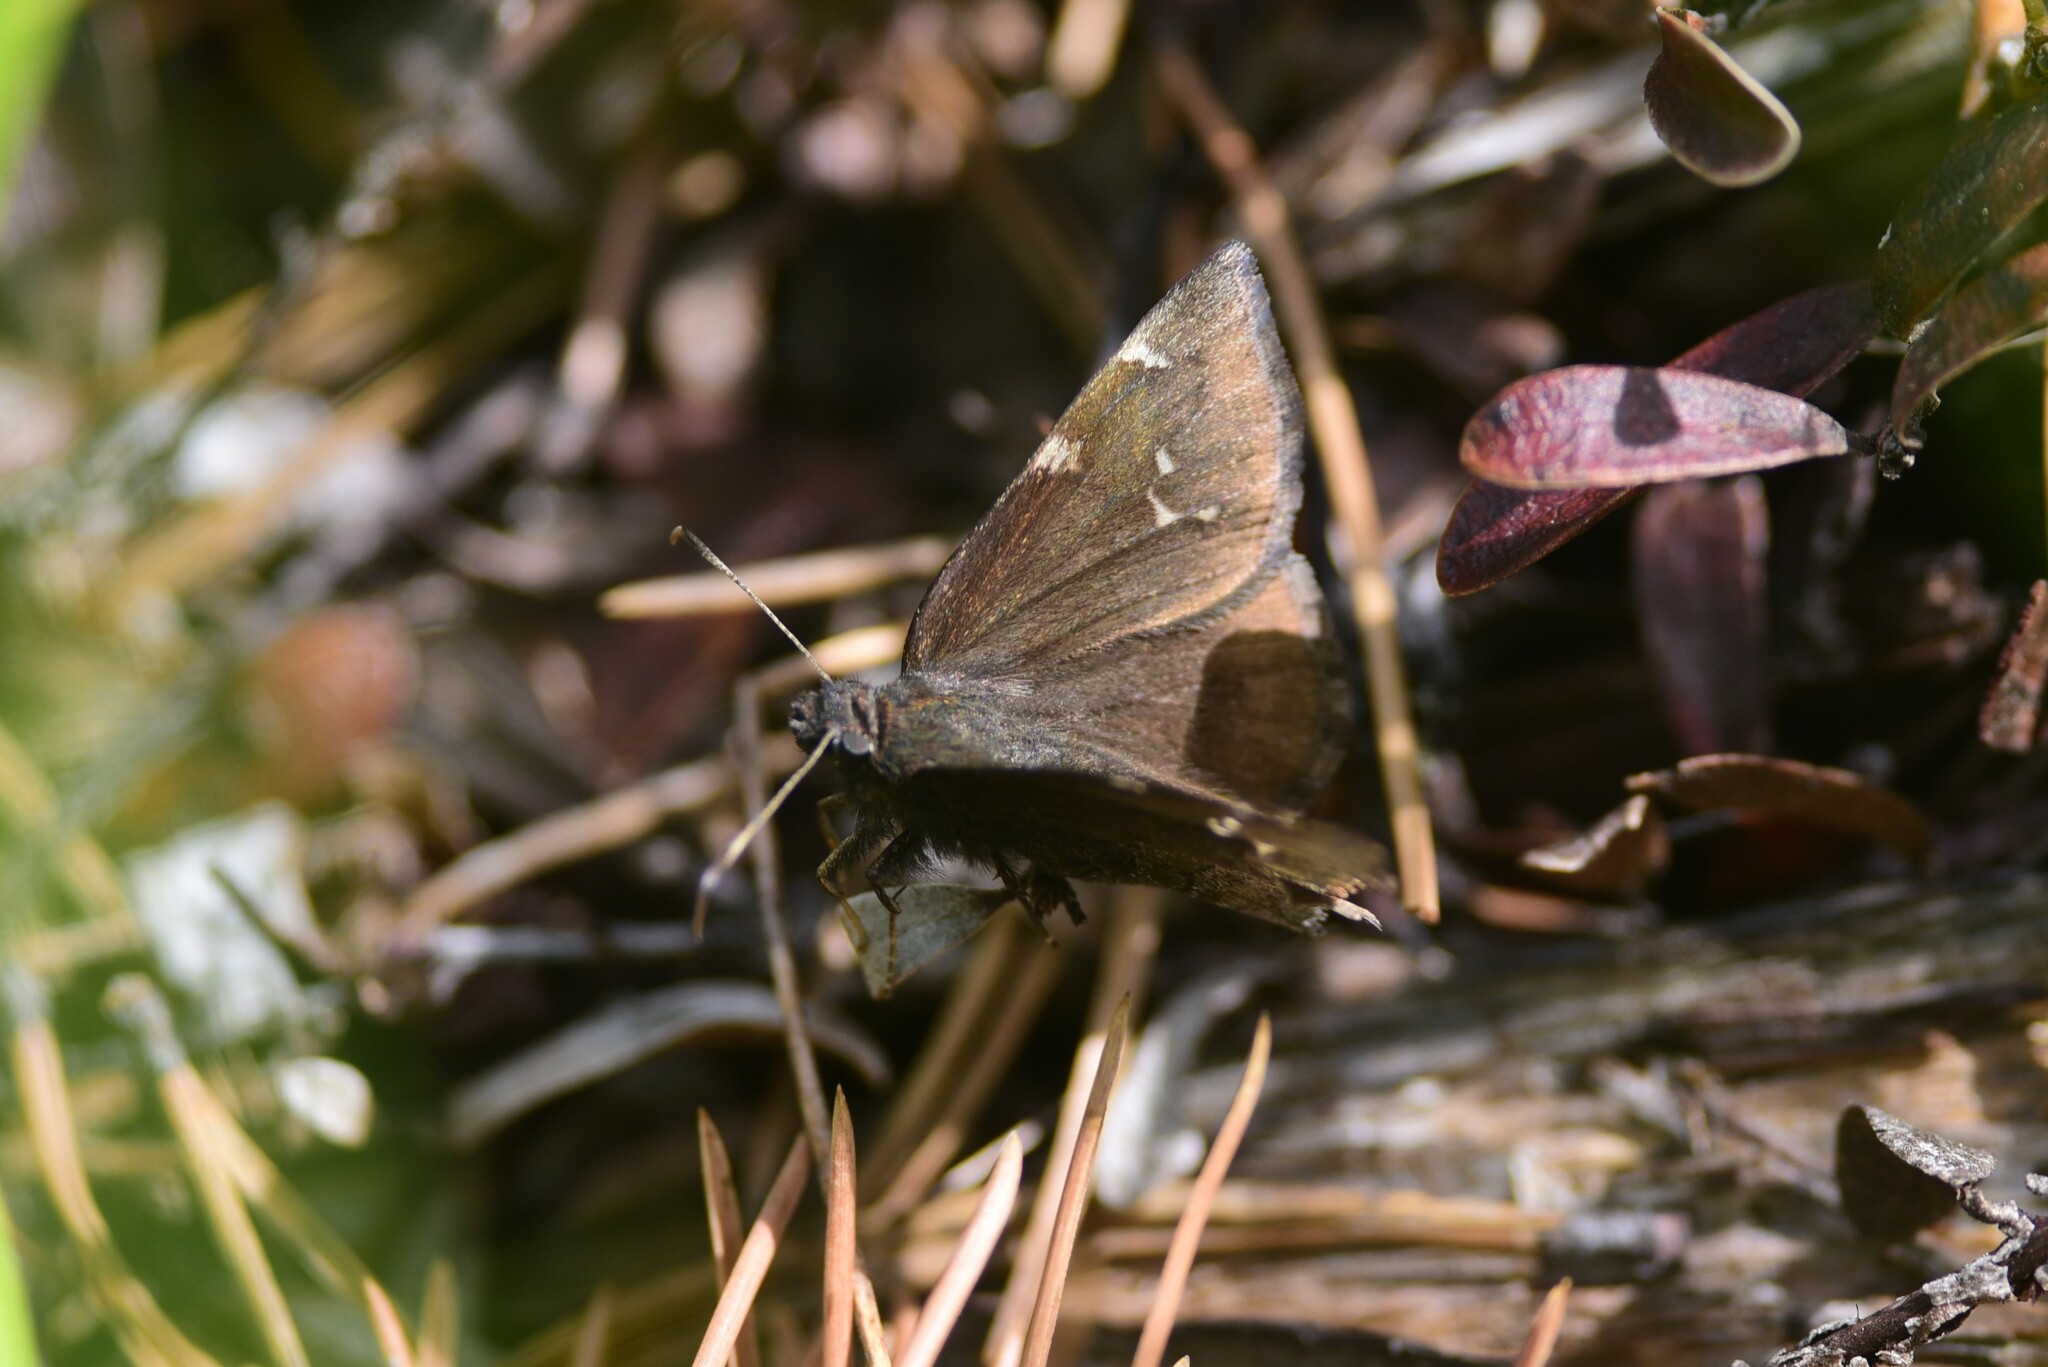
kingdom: Animalia
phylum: Arthropoda
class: Insecta
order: Lepidoptera
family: Hesperiidae
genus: Thorybes
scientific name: Thorybes pylades
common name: Northern cloudywing
